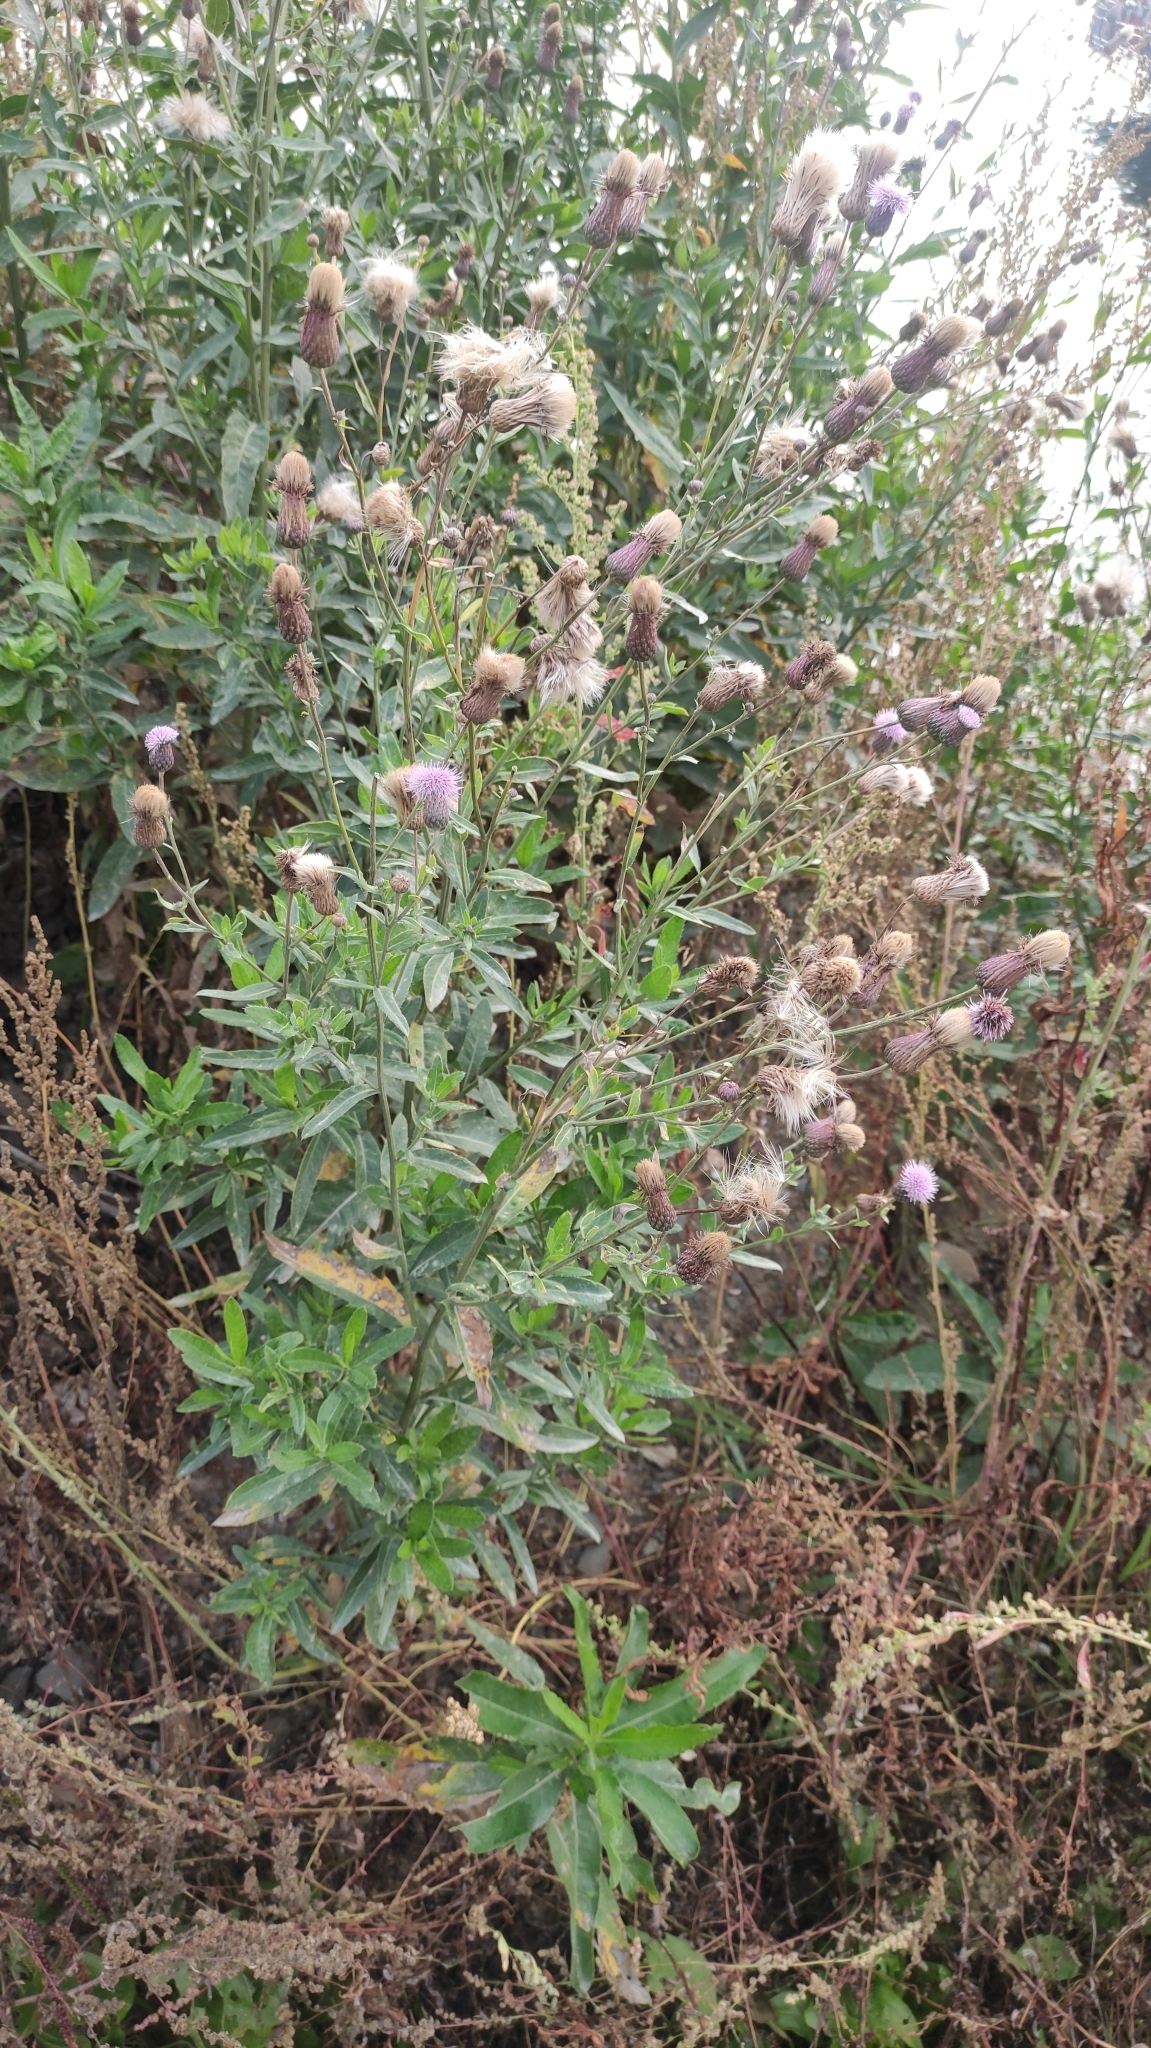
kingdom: Plantae
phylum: Tracheophyta
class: Magnoliopsida
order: Asterales
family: Asteraceae
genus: Cirsium
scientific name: Cirsium arvense
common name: Creeping thistle
